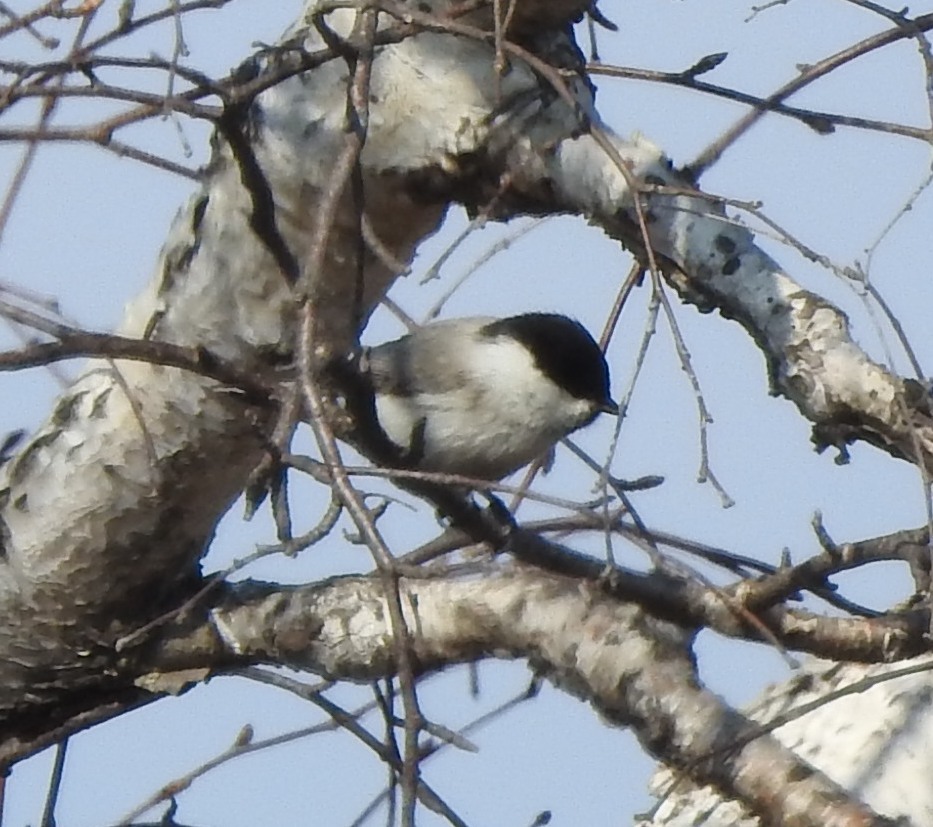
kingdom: Animalia
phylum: Chordata
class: Aves
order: Passeriformes
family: Paridae
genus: Poecile
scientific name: Poecile montanus
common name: Willow tit
